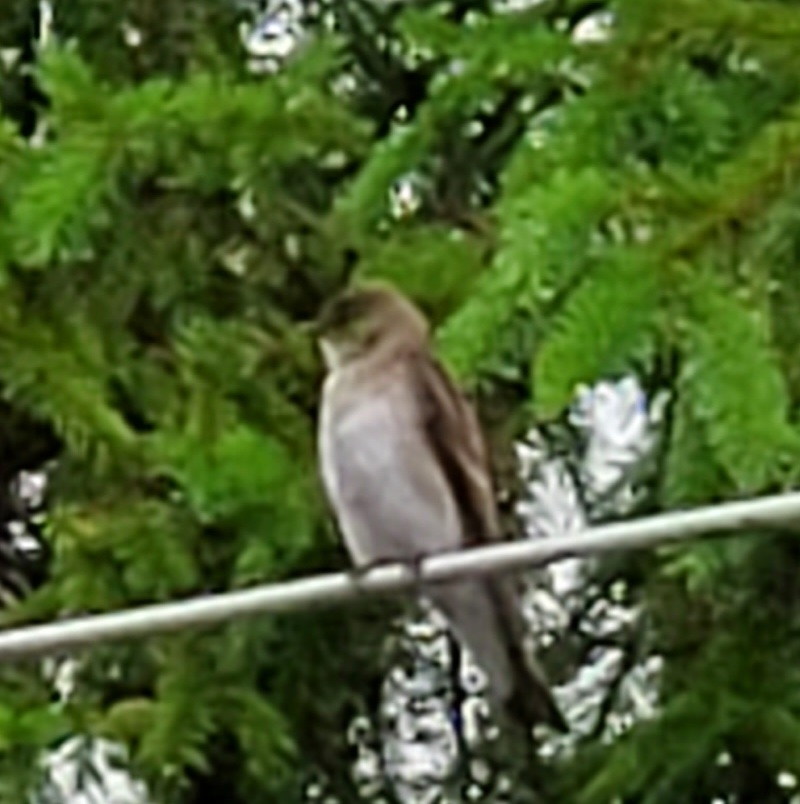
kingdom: Animalia
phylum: Chordata
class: Aves
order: Passeriformes
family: Hirundinidae
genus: Stelgidopteryx
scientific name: Stelgidopteryx serripennis
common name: Northern rough-winged swallow
